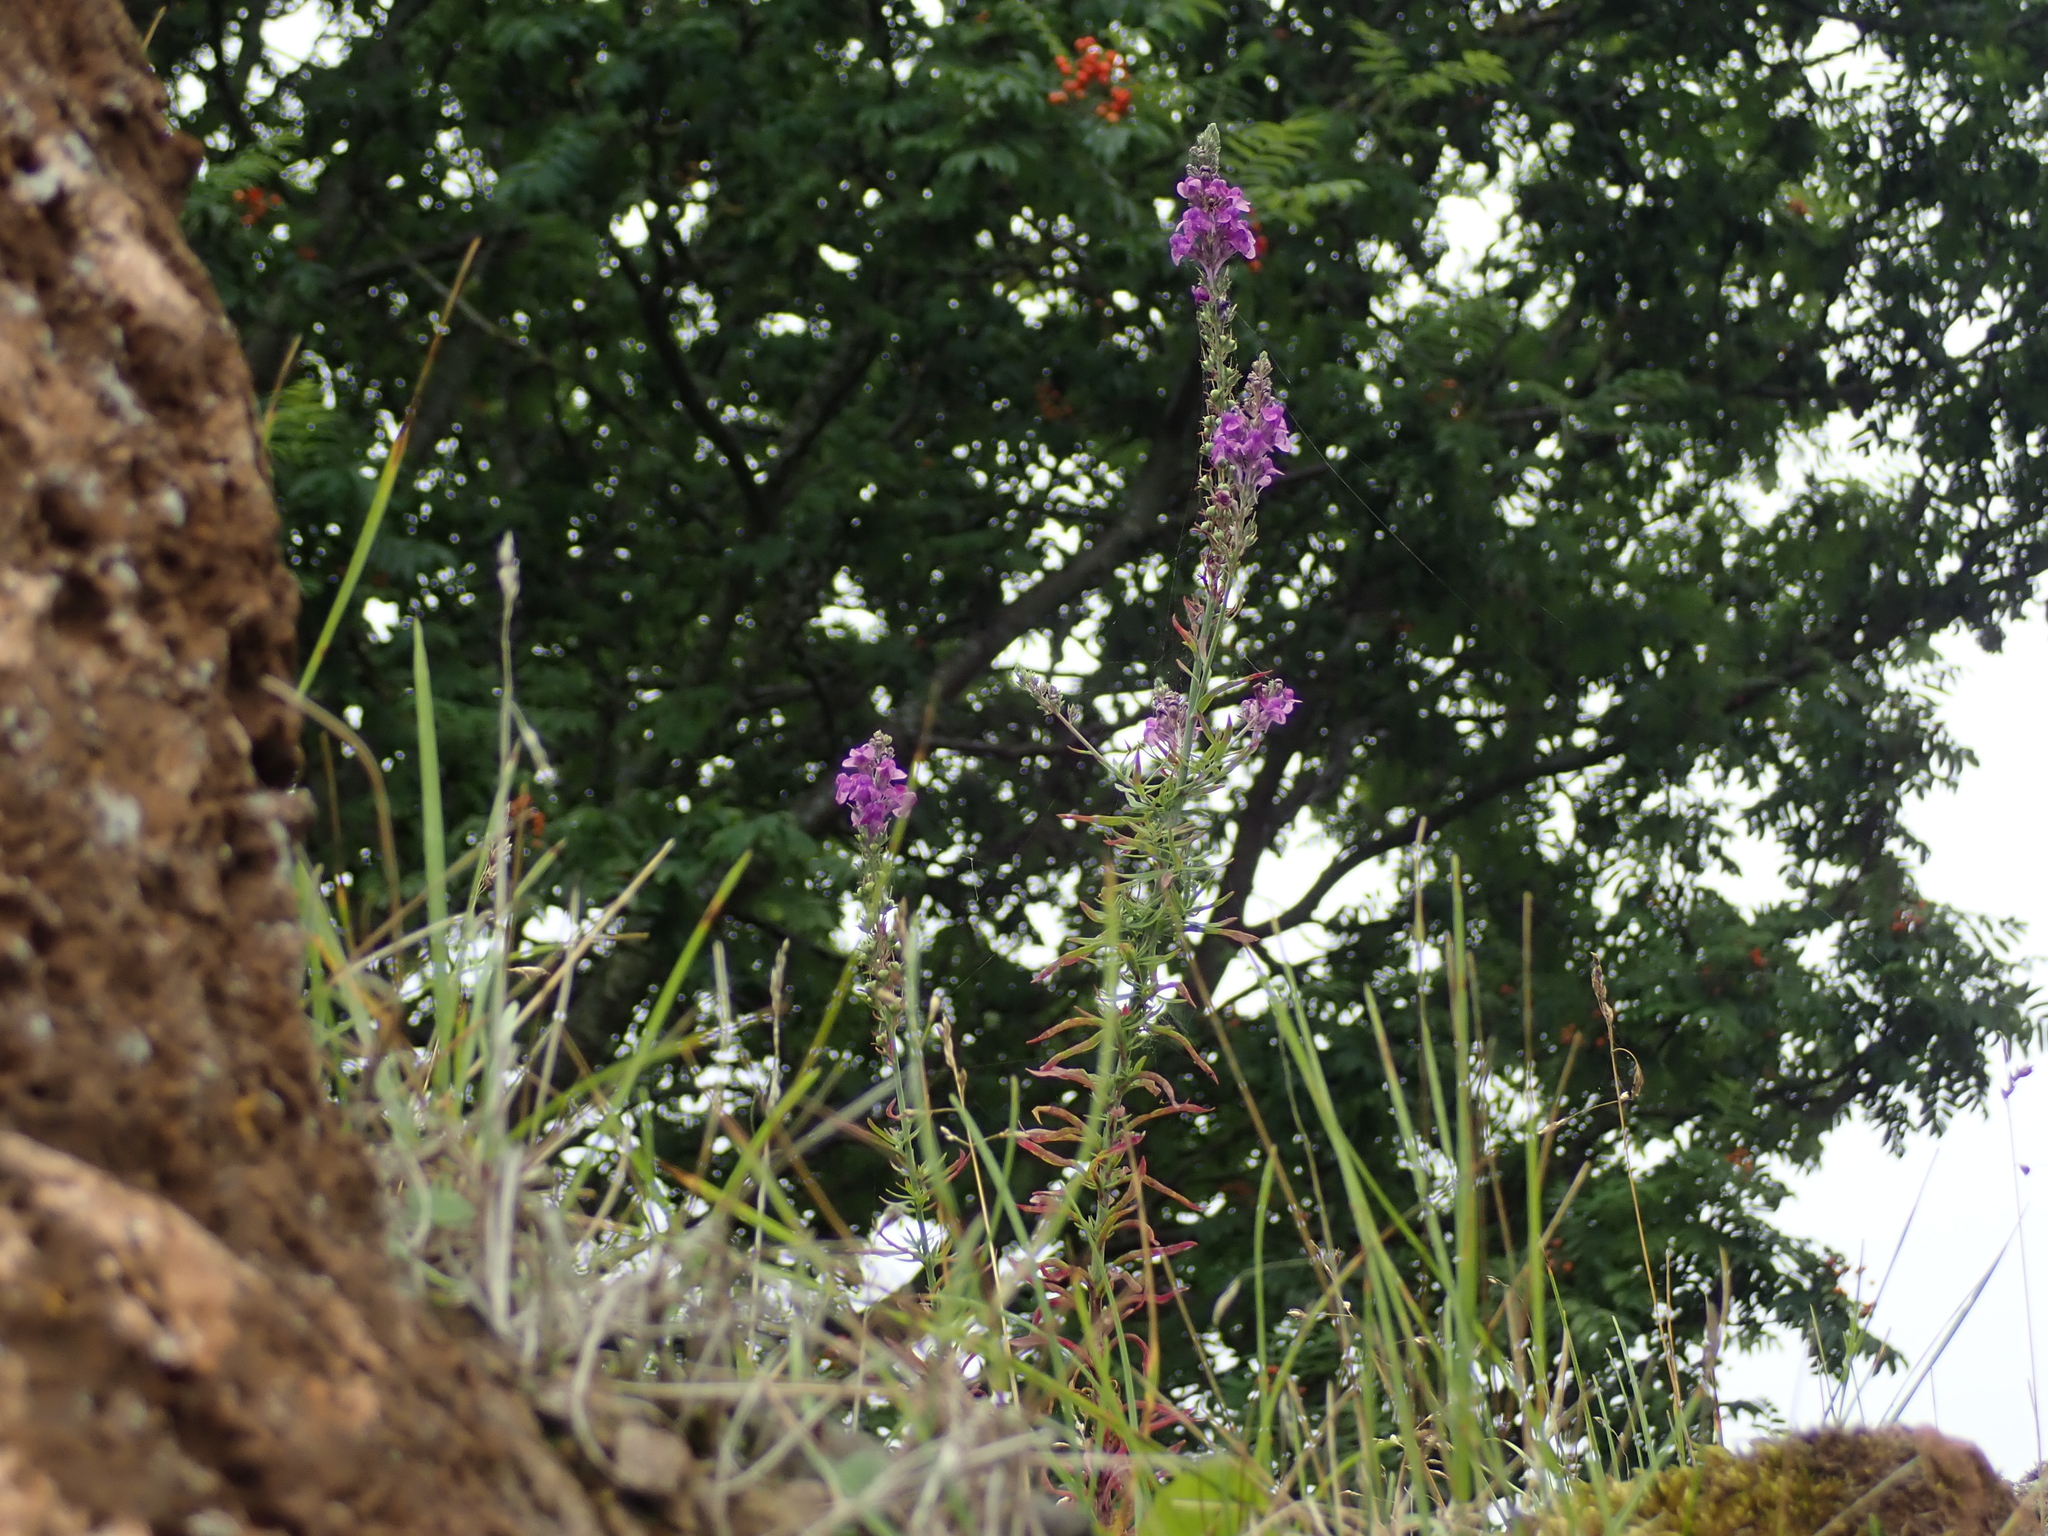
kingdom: Plantae
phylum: Tracheophyta
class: Magnoliopsida
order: Lamiales
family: Plantaginaceae
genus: Linaria
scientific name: Linaria purpurea
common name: Purple toadflax
